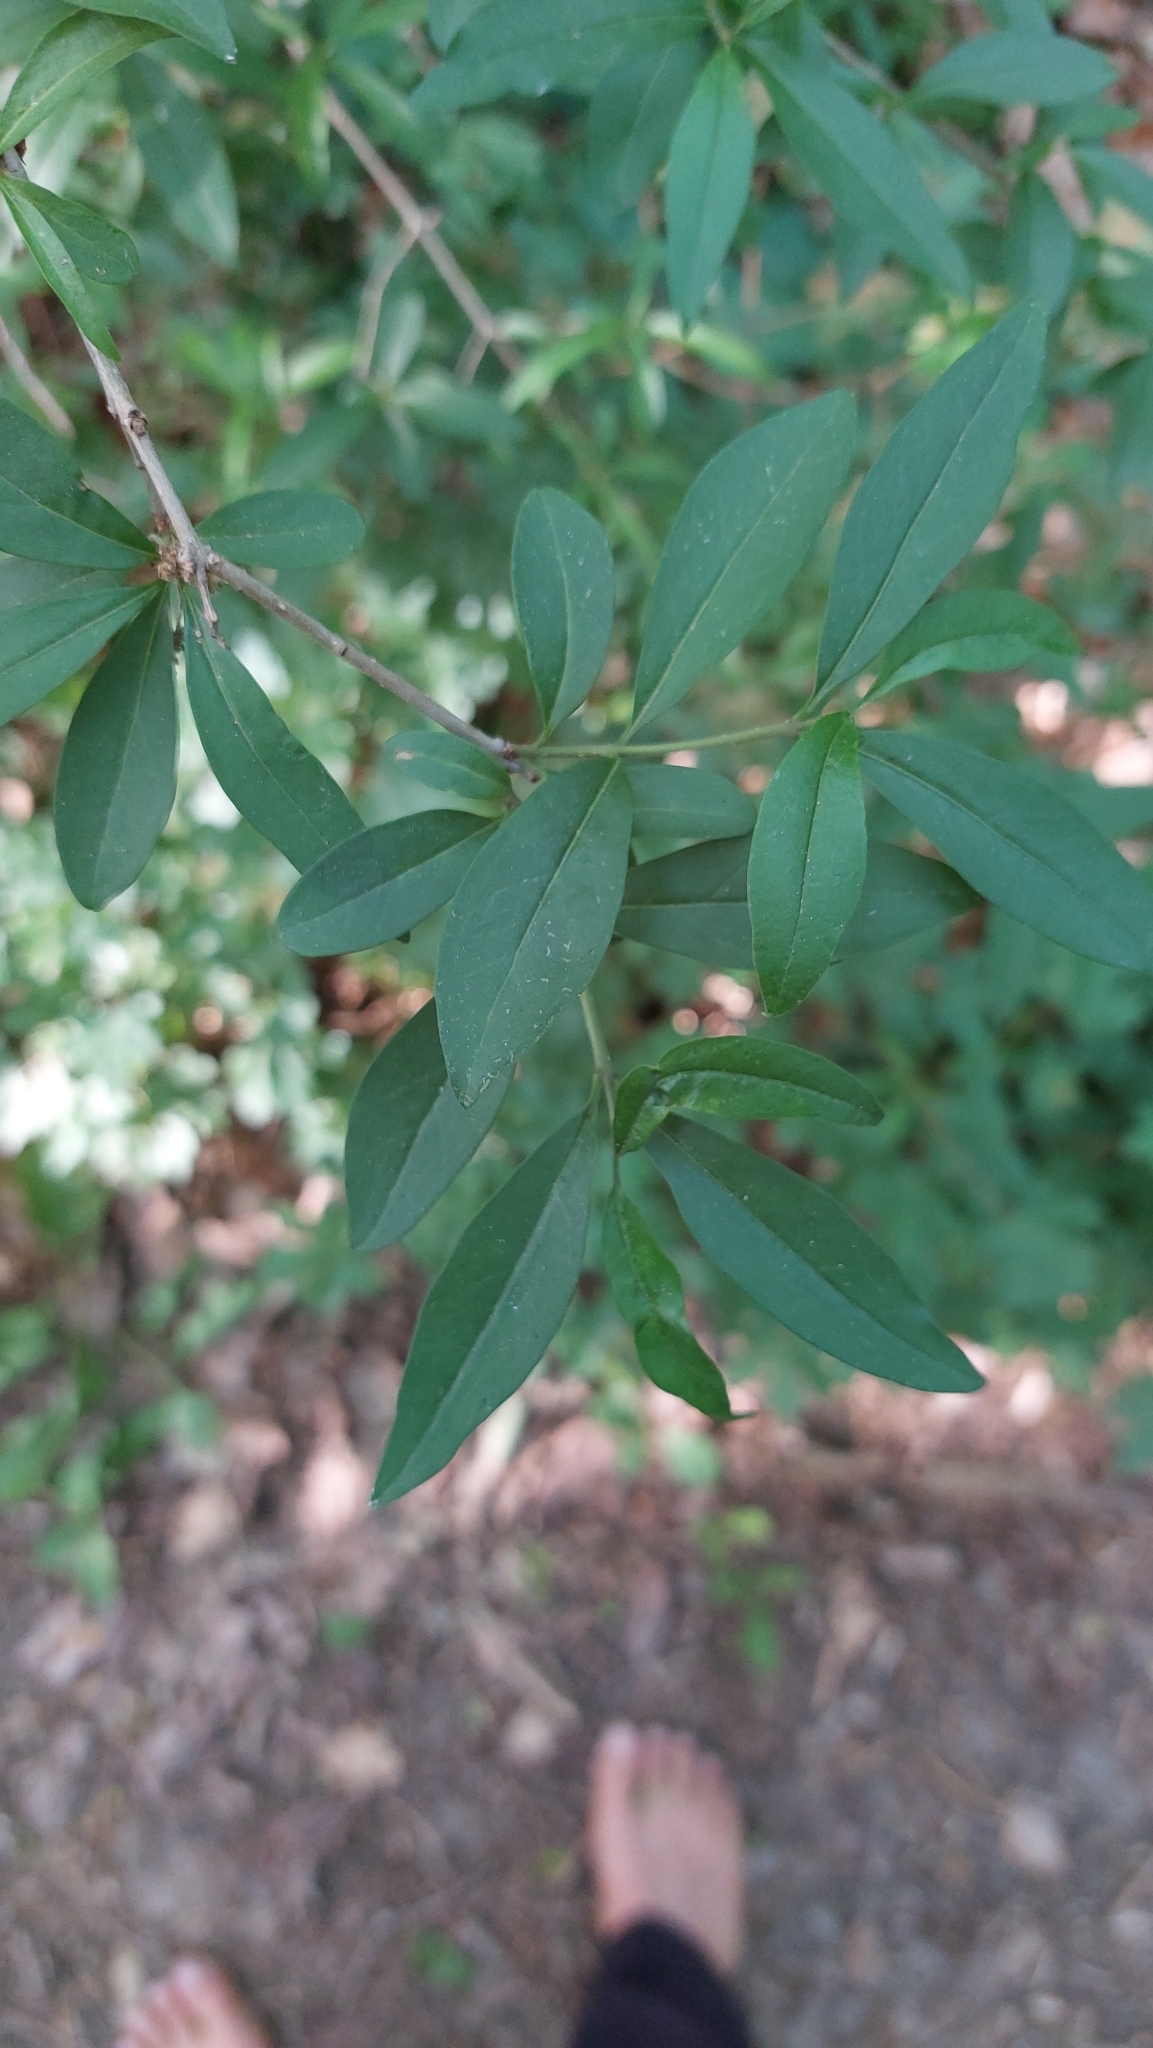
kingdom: Plantae
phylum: Tracheophyta
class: Magnoliopsida
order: Lamiales
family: Oleaceae
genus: Ligustrum
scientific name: Ligustrum vulgare
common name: Wild privet
